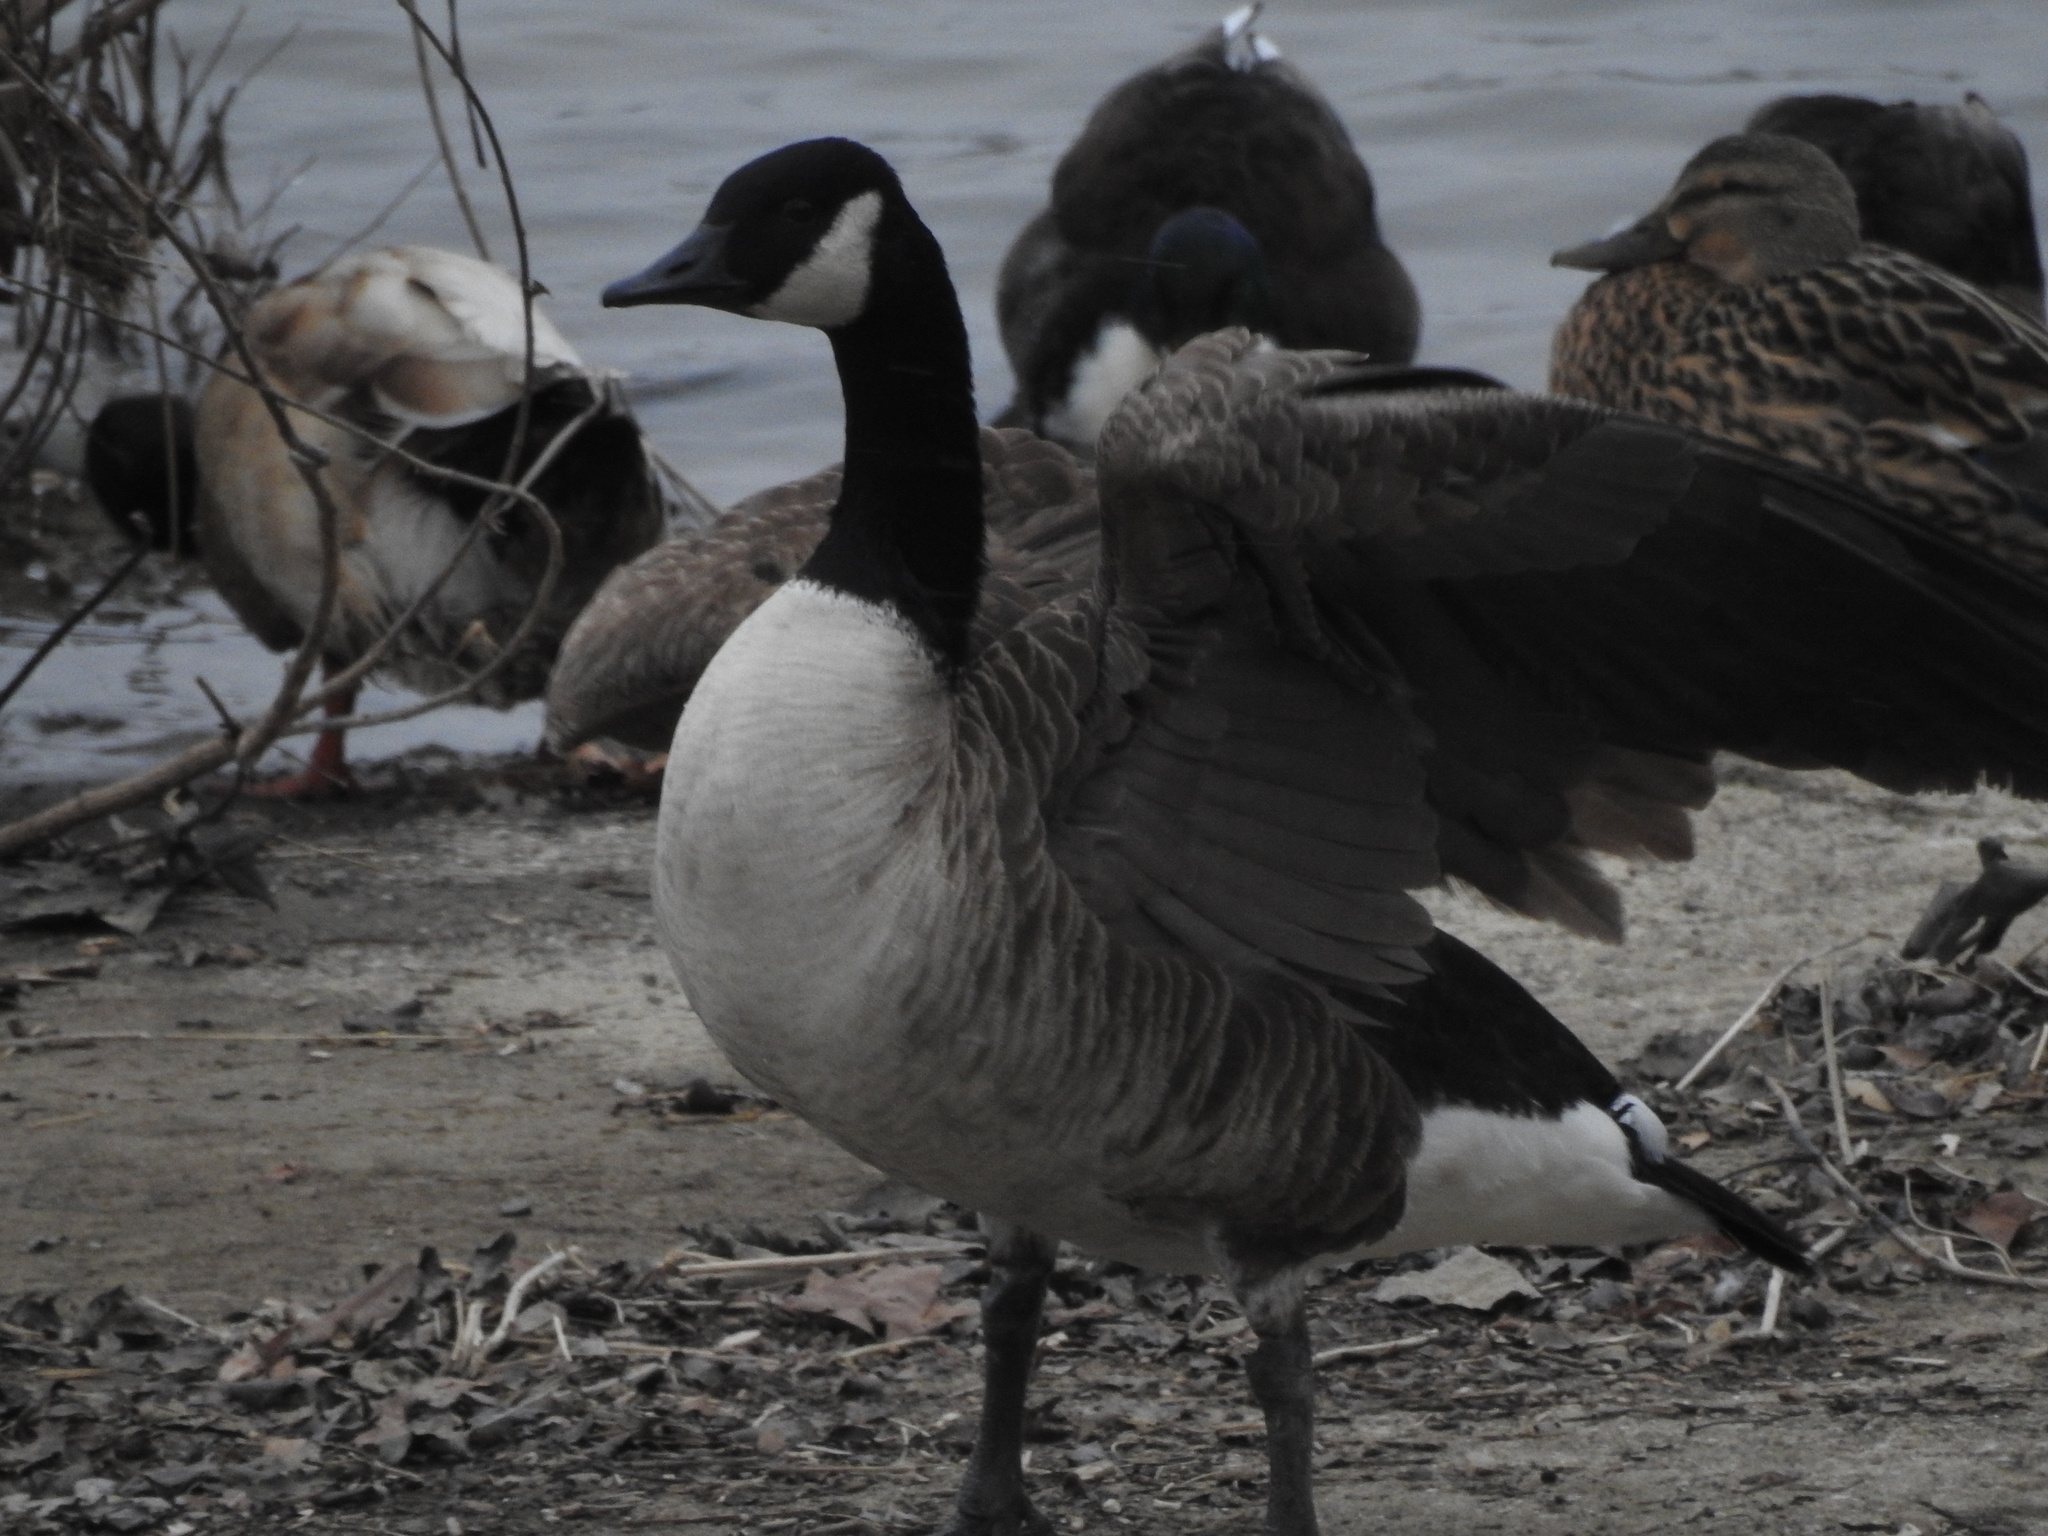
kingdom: Animalia
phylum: Chordata
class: Aves
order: Anseriformes
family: Anatidae
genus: Branta
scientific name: Branta canadensis
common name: Canada goose
